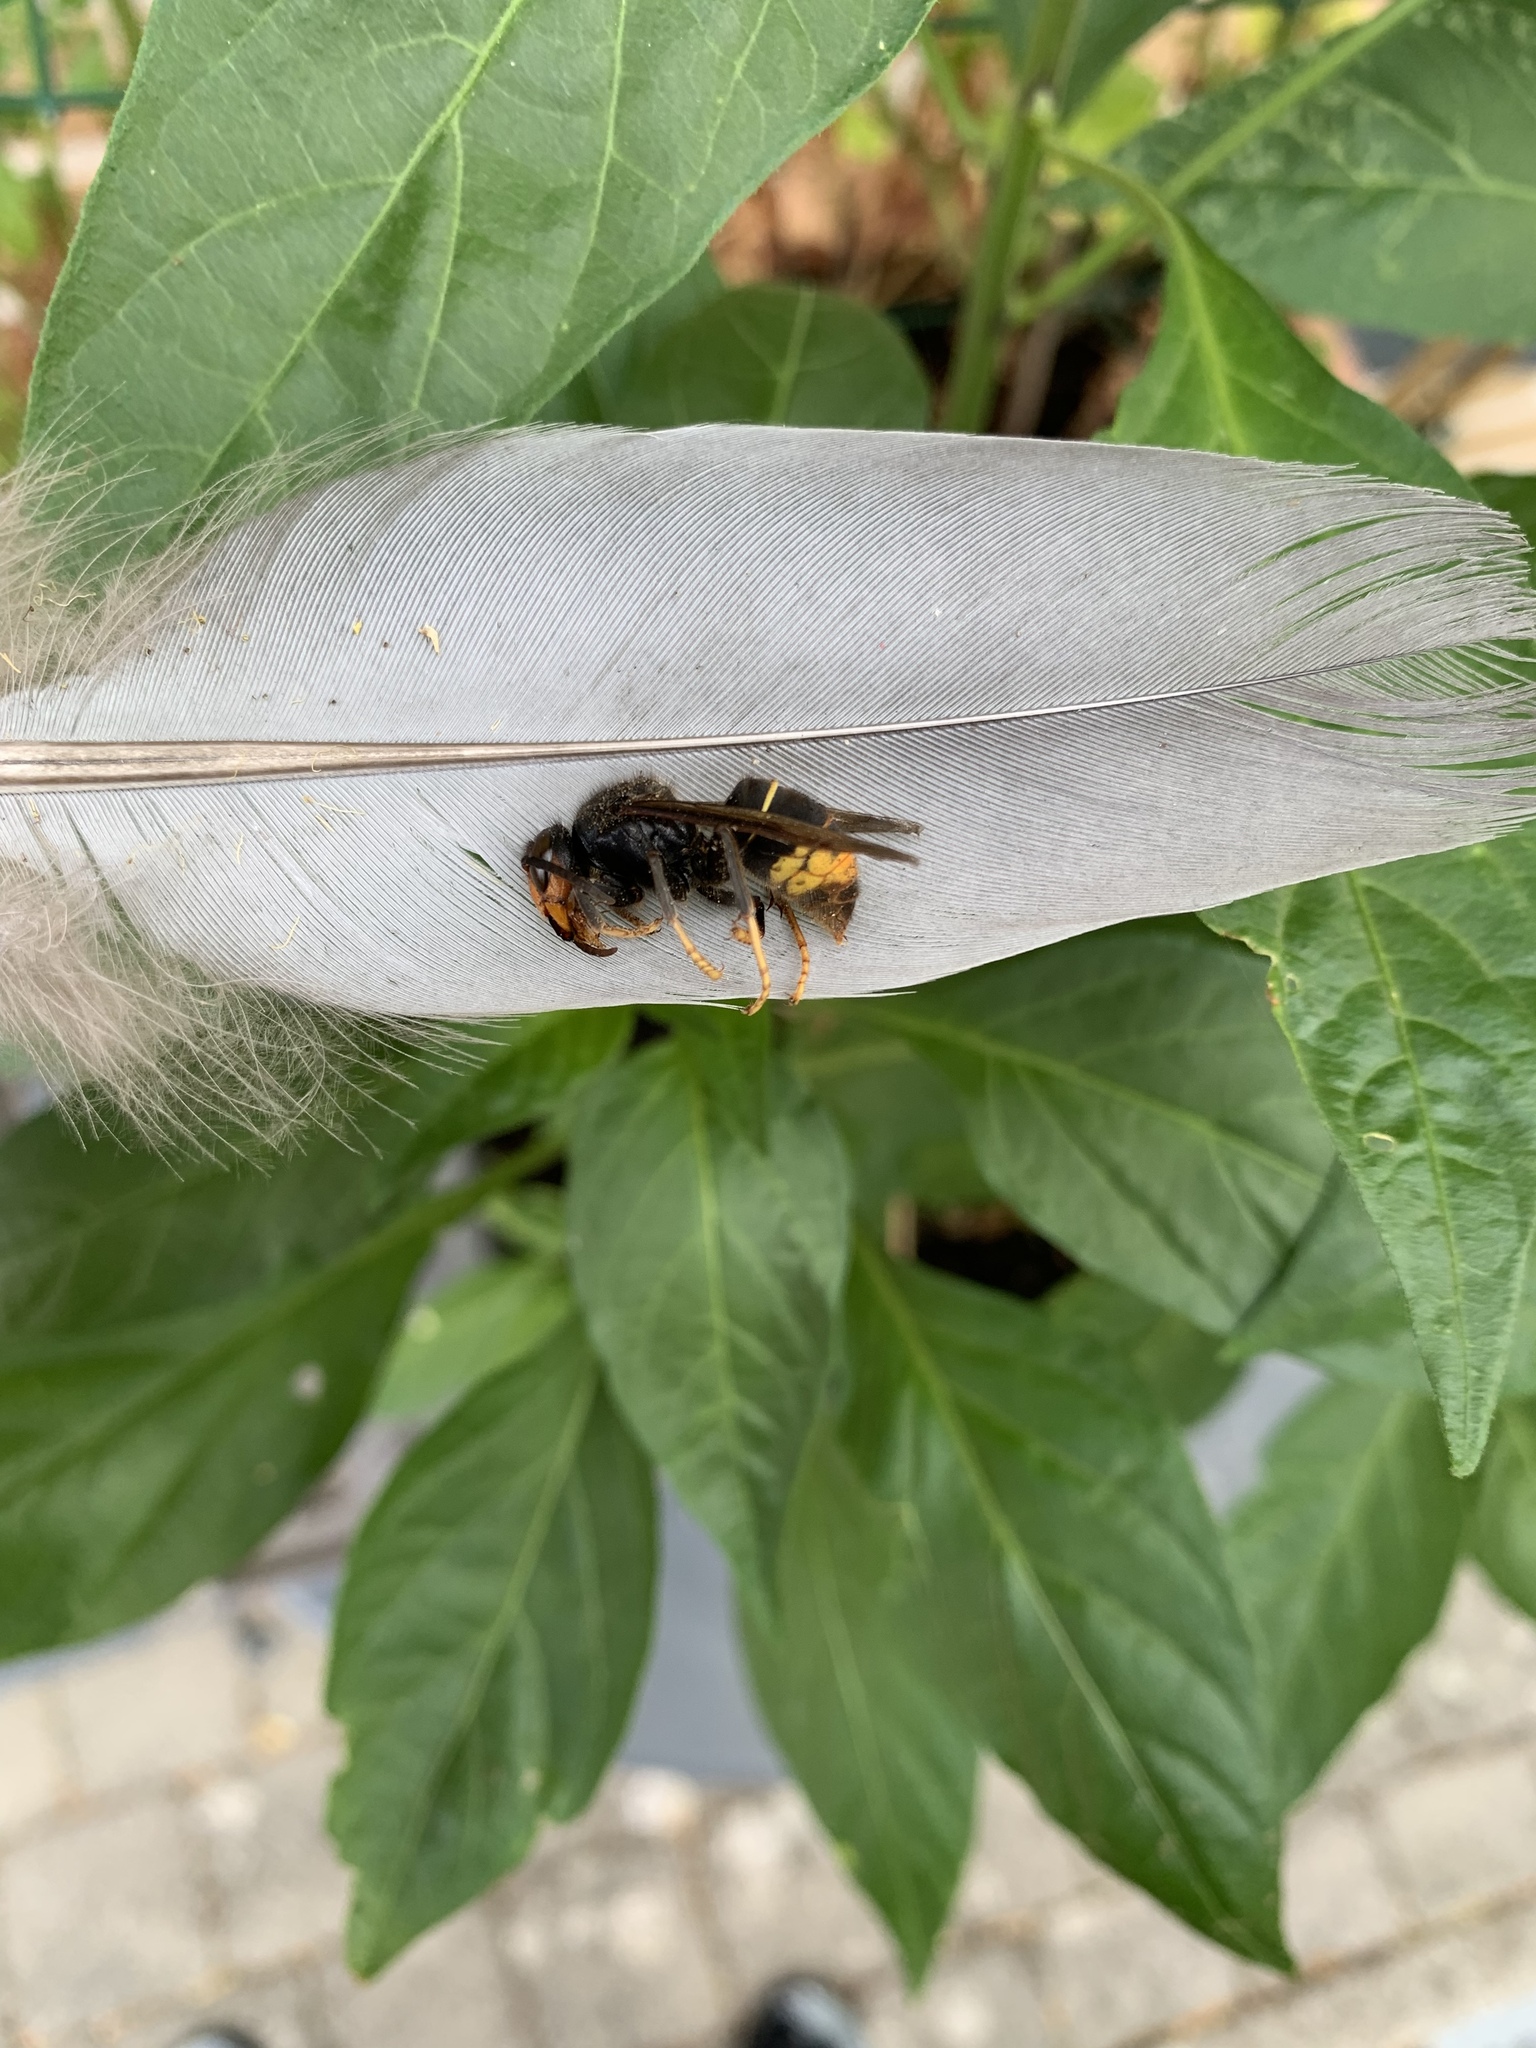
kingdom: Animalia
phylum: Arthropoda
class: Insecta
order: Hymenoptera
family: Vespidae
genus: Vespa
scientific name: Vespa velutina
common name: Asian hornet
